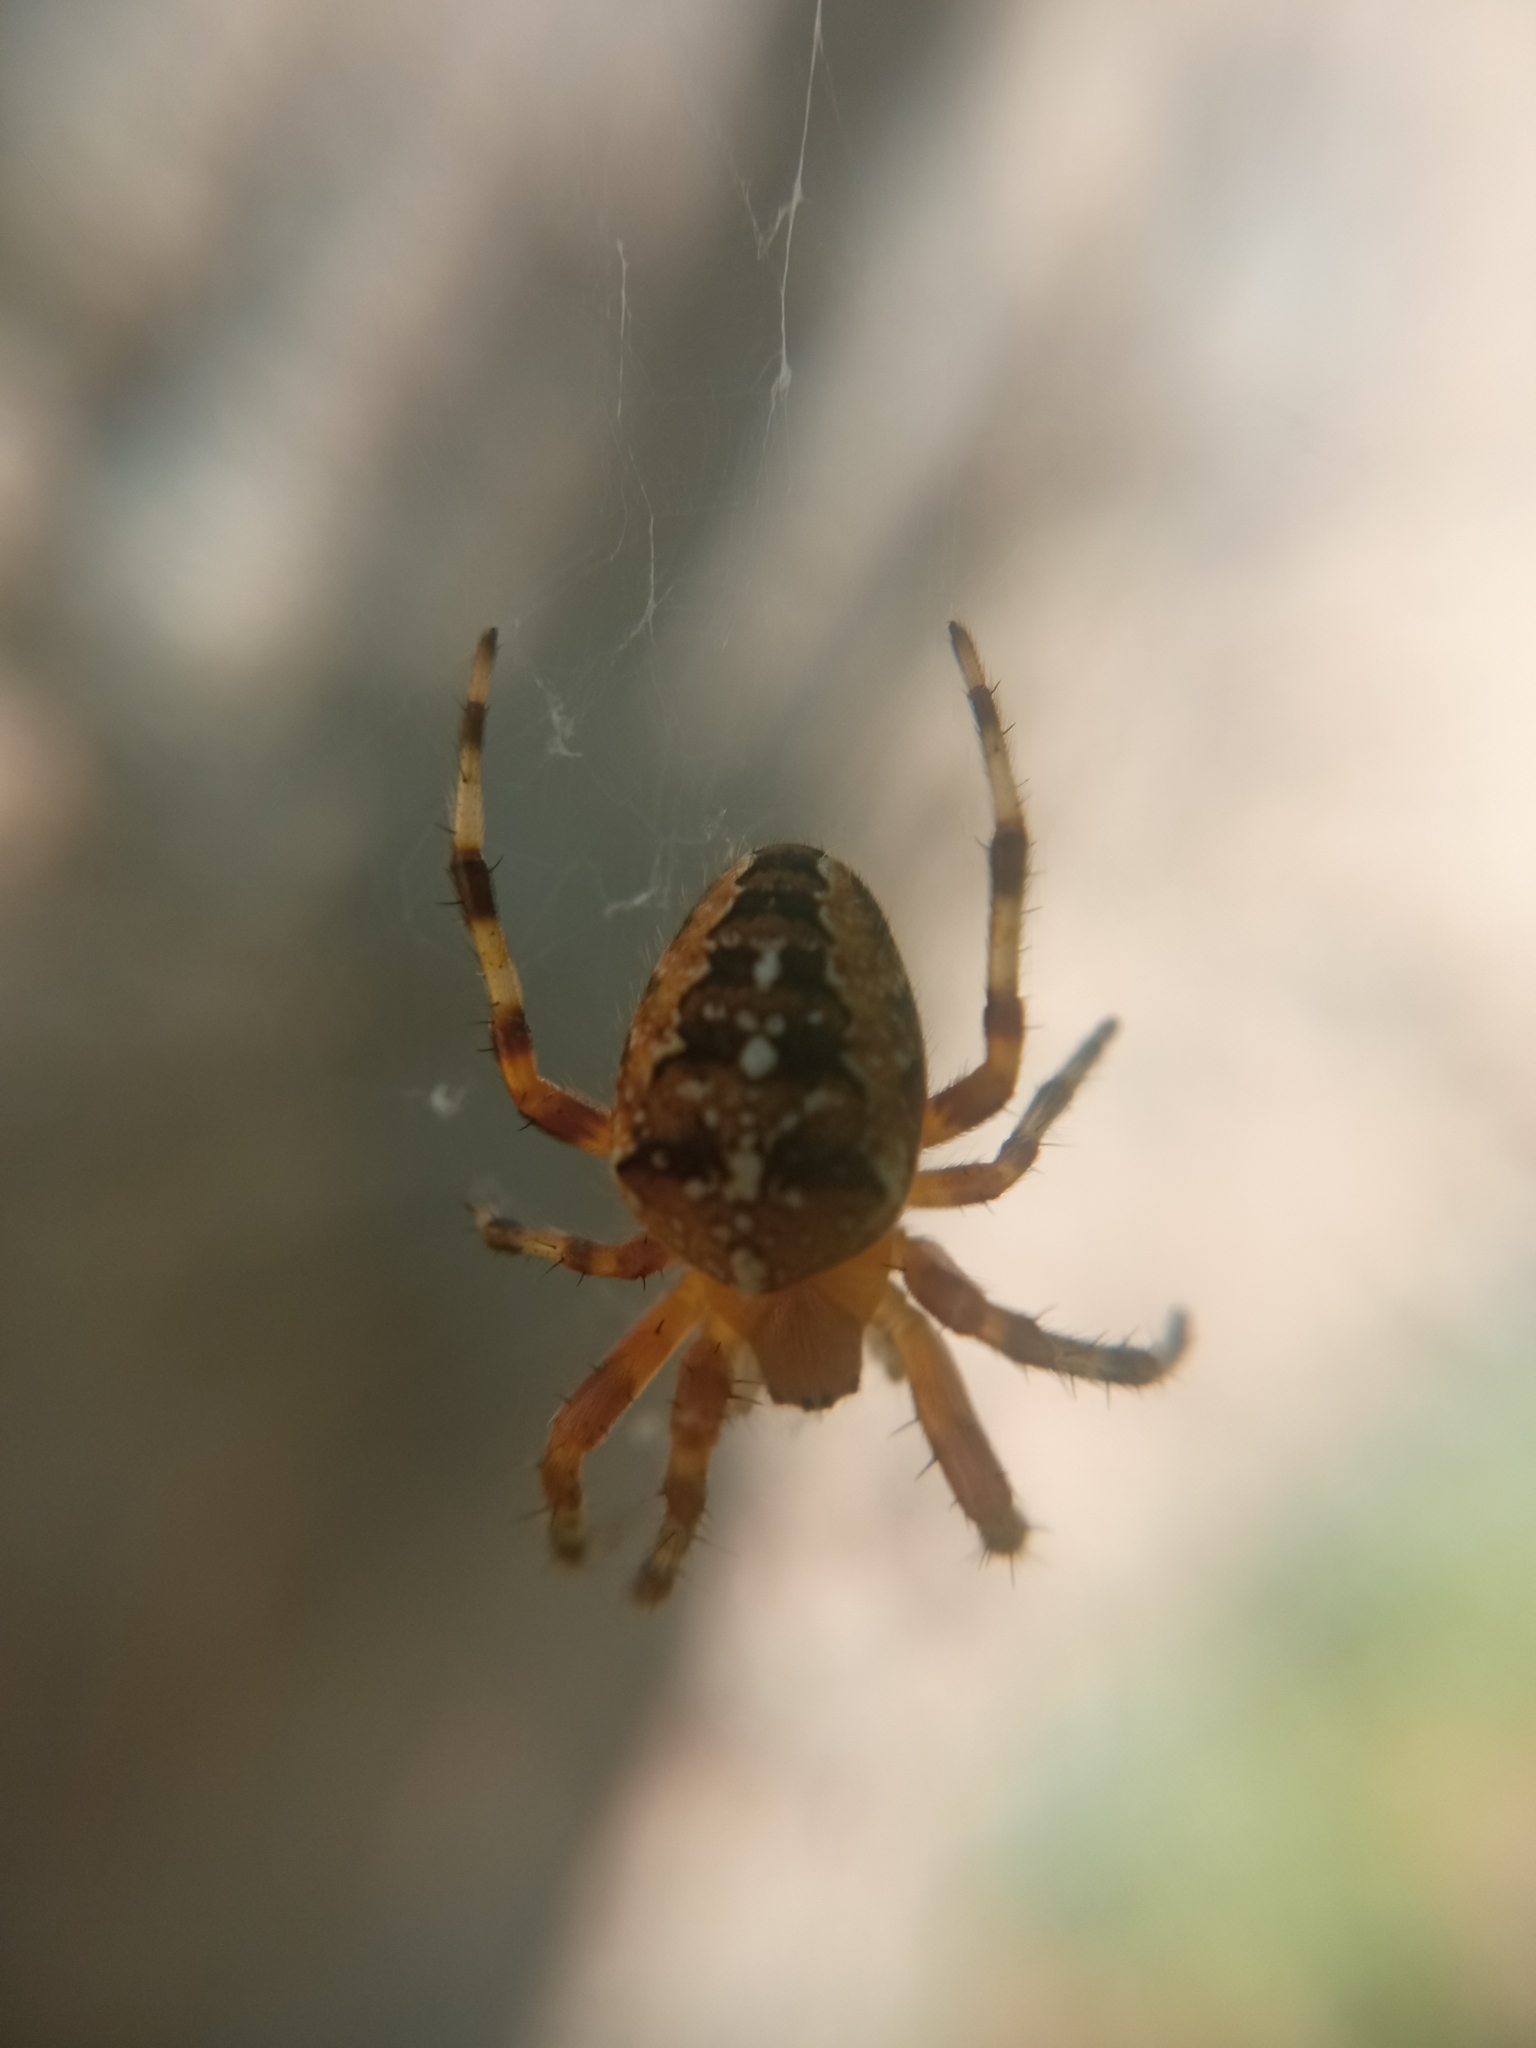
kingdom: Animalia
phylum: Arthropoda
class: Arachnida
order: Araneae
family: Araneidae
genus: Araneus
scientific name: Araneus diadematus
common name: Cross orbweaver
